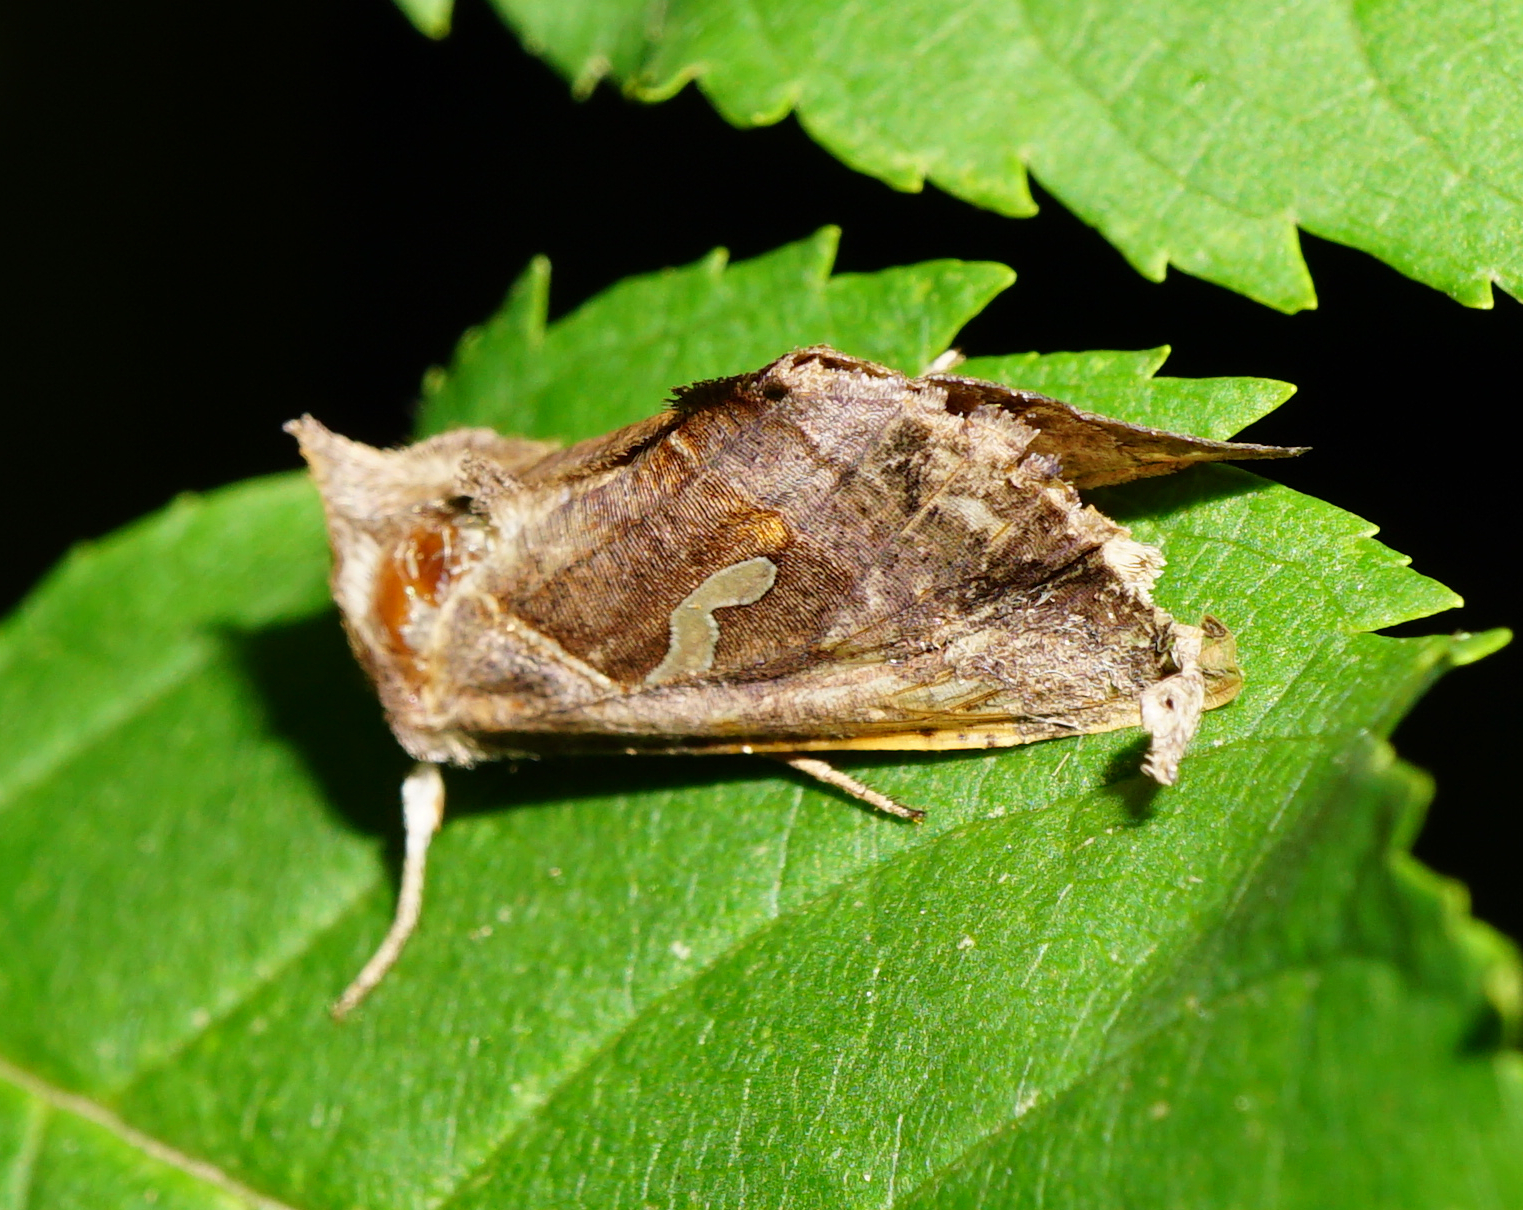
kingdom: Animalia
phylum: Arthropoda
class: Insecta
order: Lepidoptera
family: Noctuidae
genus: Macdunnoughia
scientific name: Macdunnoughia confusa
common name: Dewick's plusia
